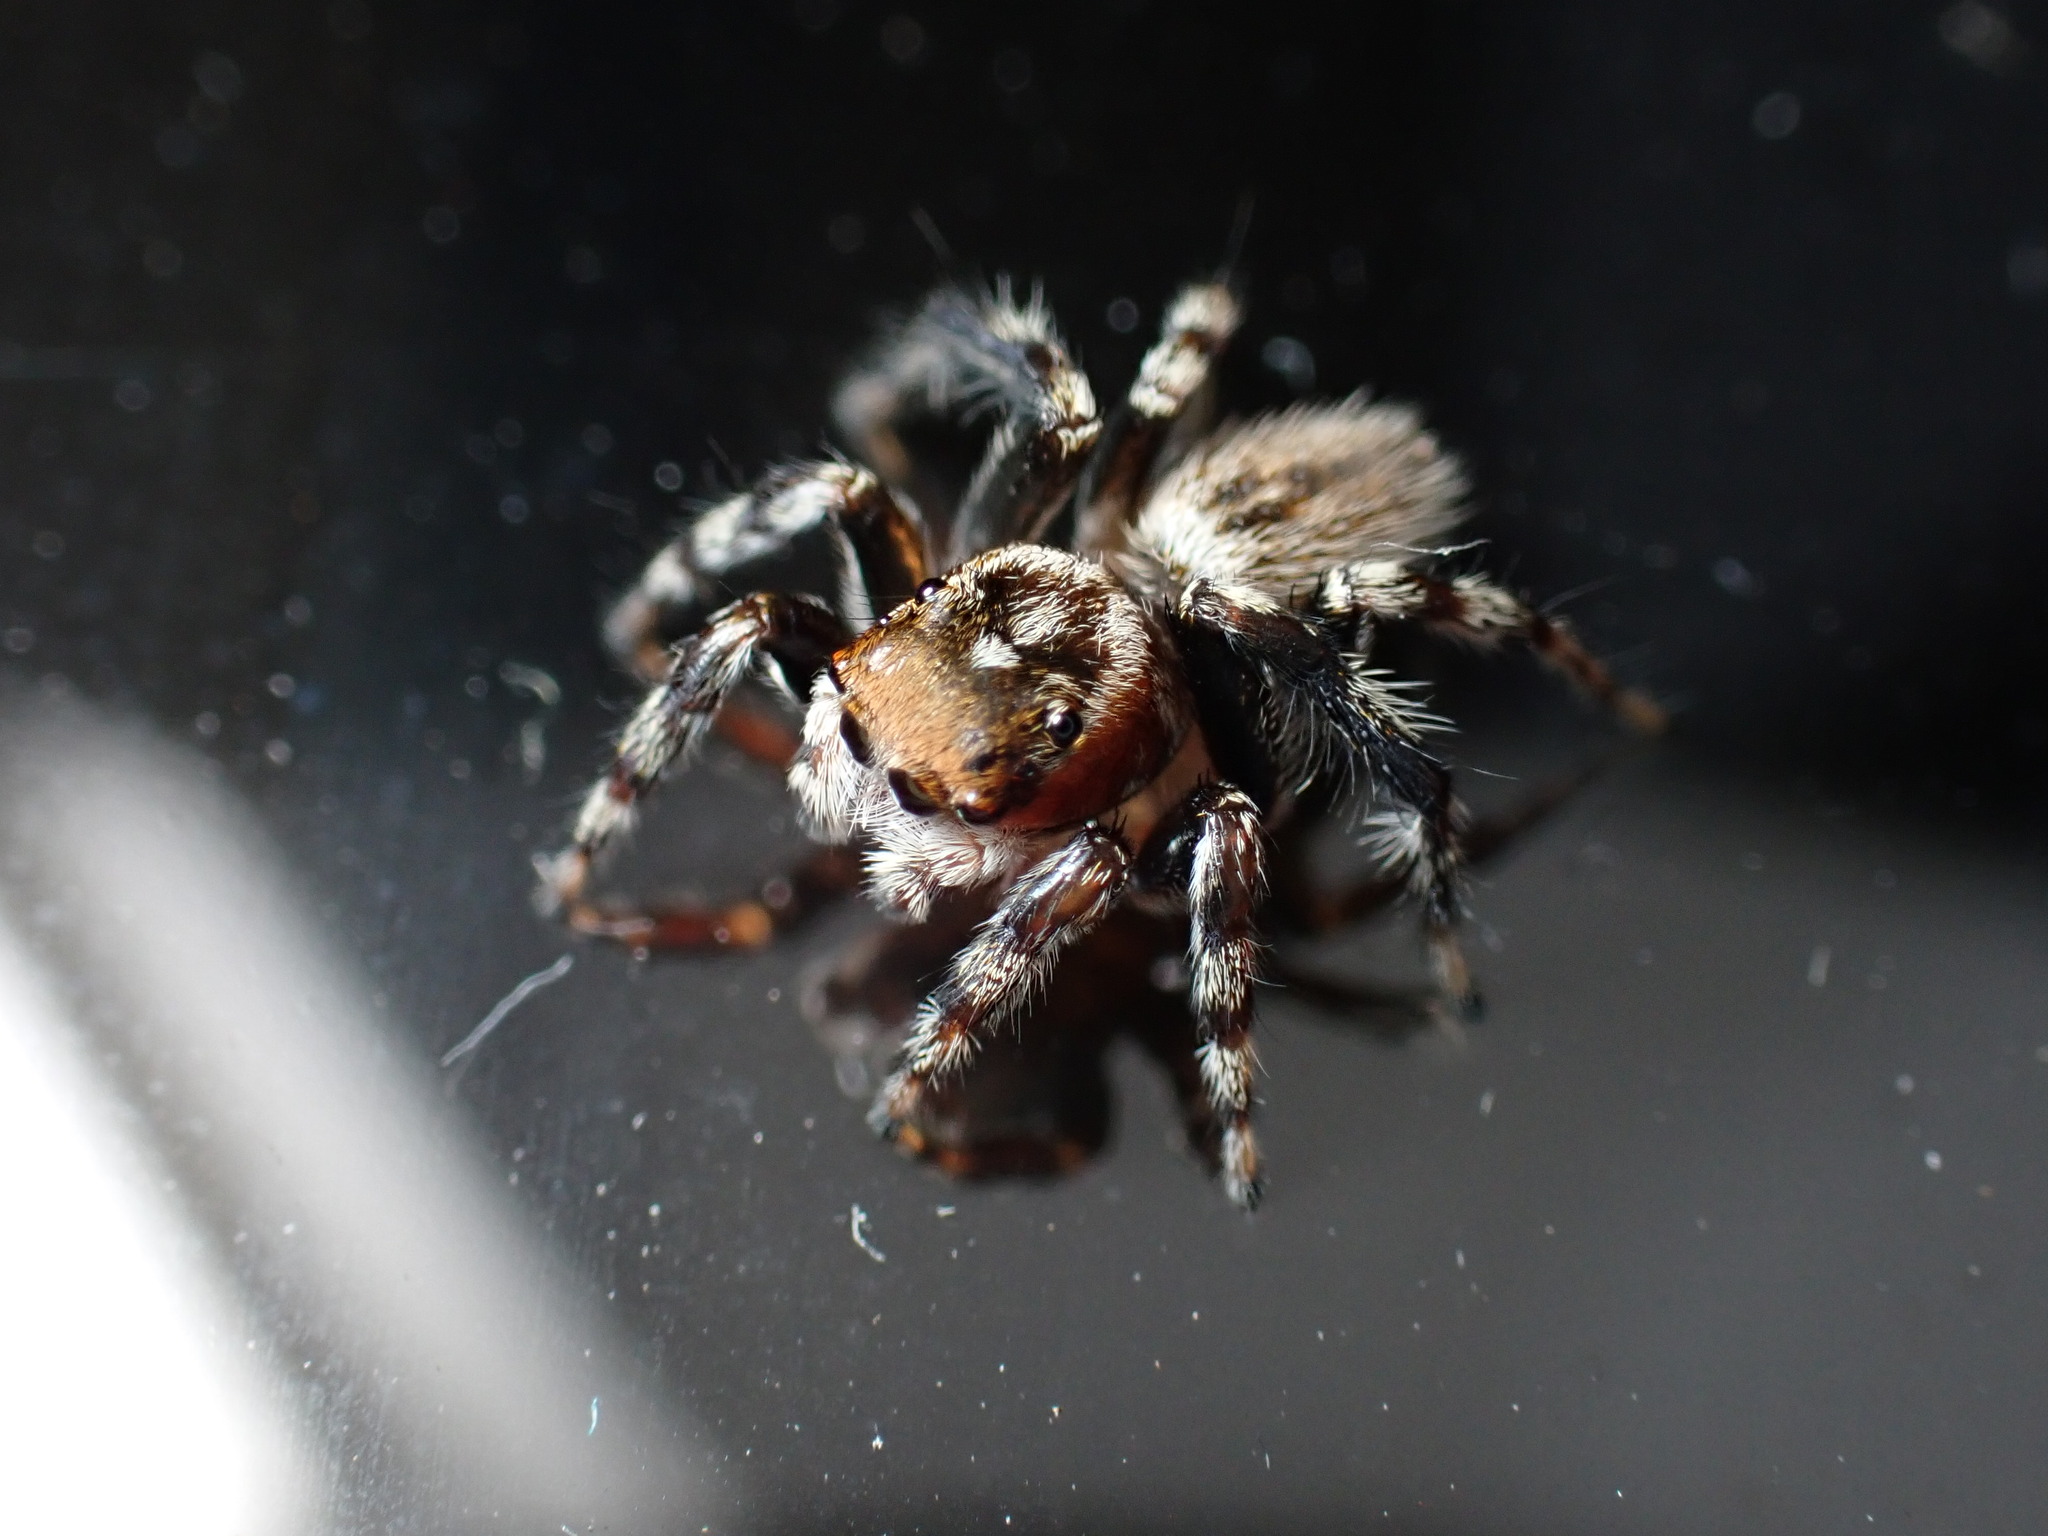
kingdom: Animalia
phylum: Arthropoda
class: Arachnida
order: Araneae
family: Salticidae
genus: Maratus
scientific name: Maratus griseus
